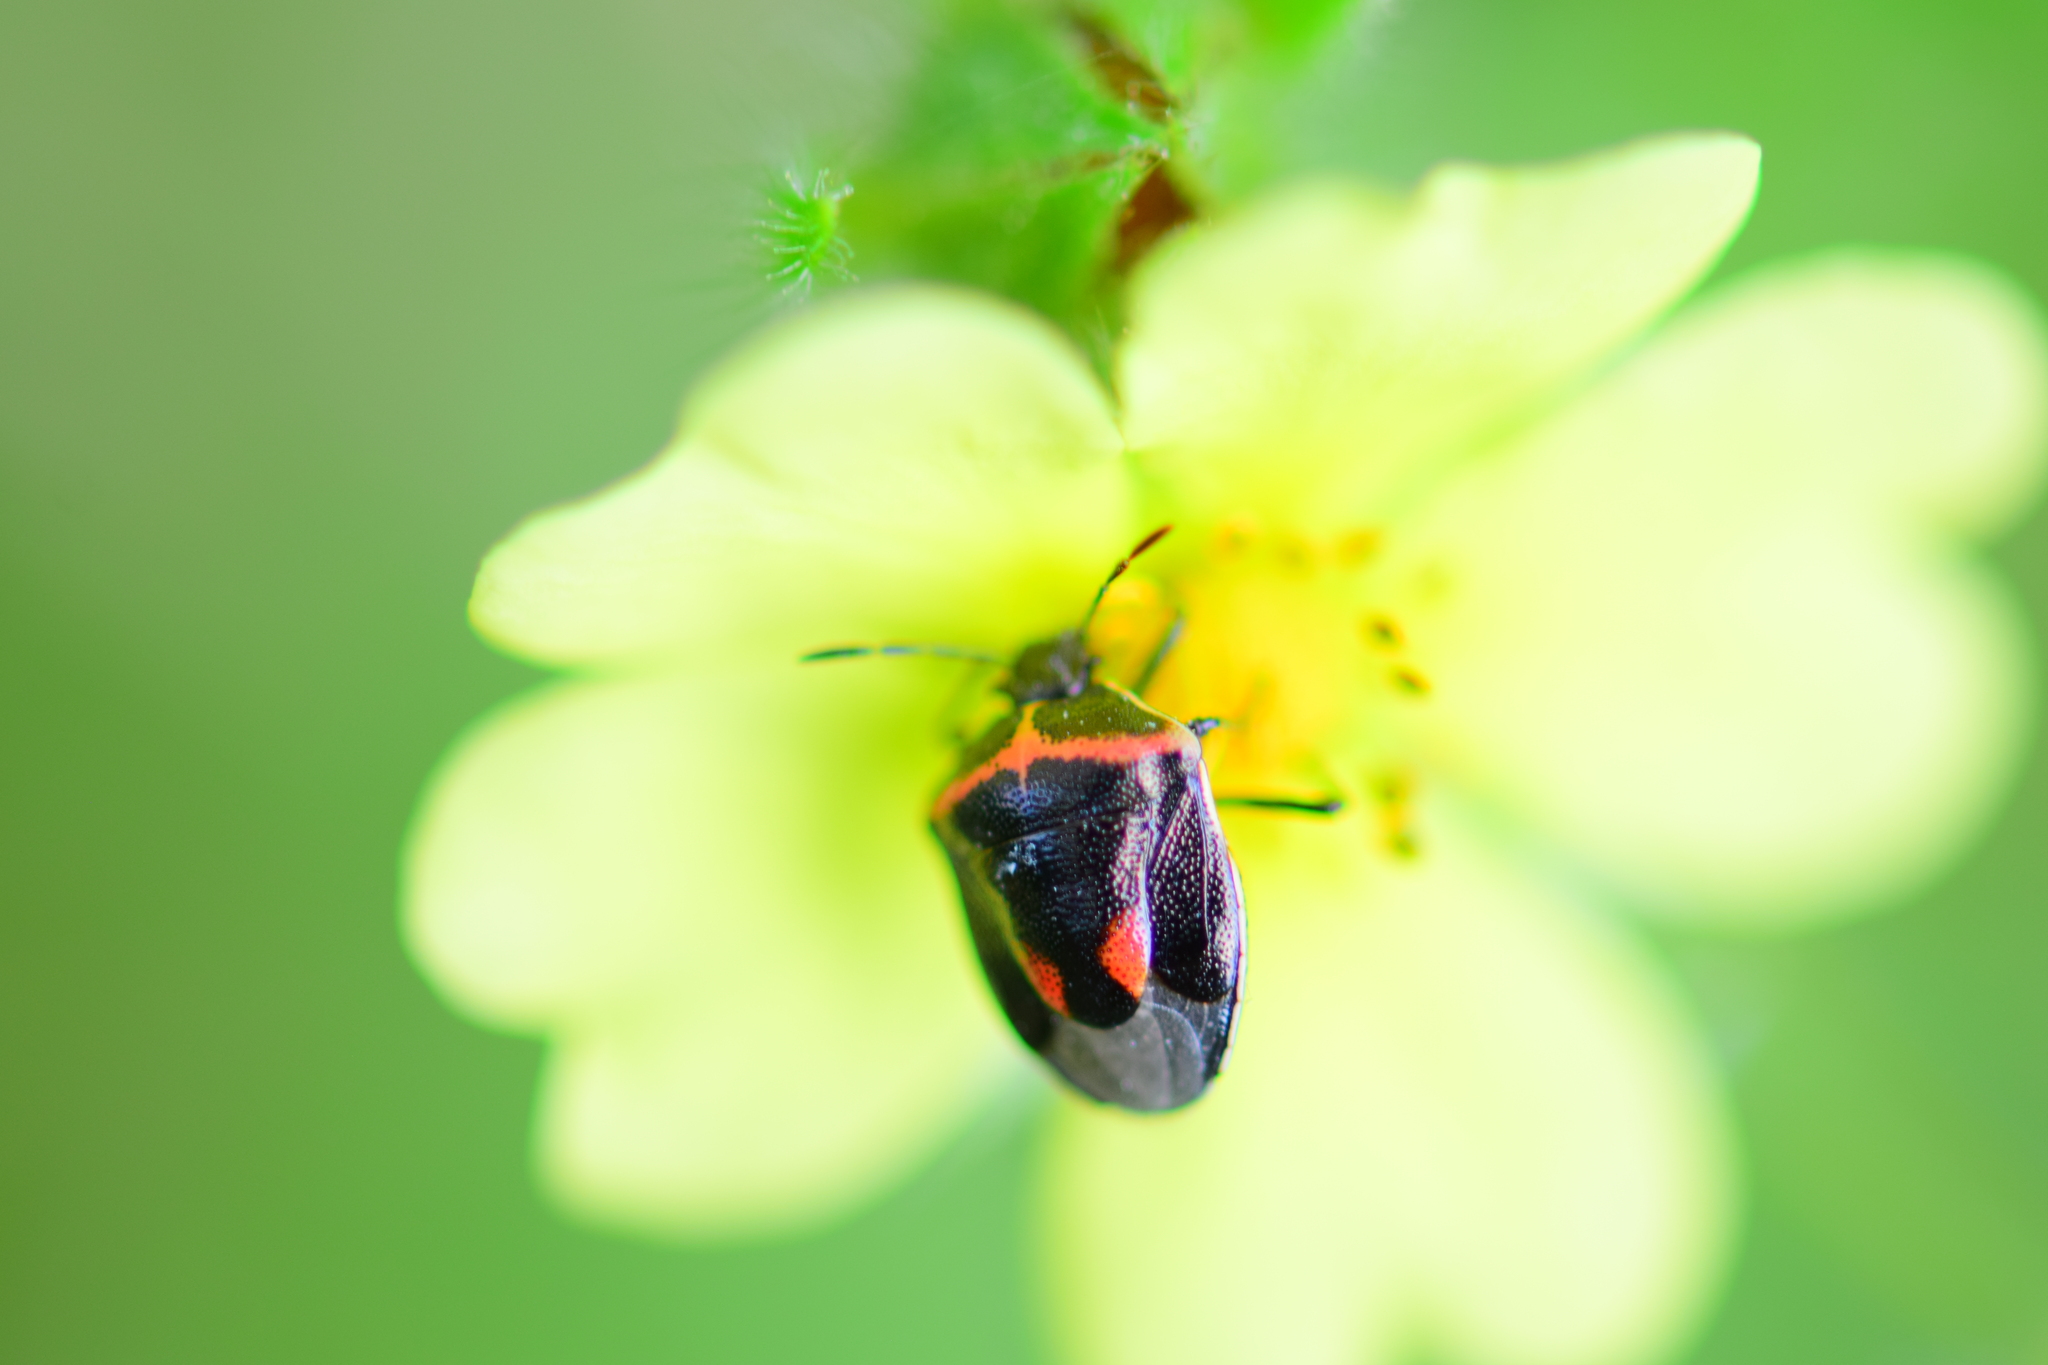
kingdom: Animalia
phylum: Arthropoda
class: Insecta
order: Hemiptera
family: Pentatomidae
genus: Cosmopepla
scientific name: Cosmopepla lintneriana
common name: Twice-stabbed stink bug
